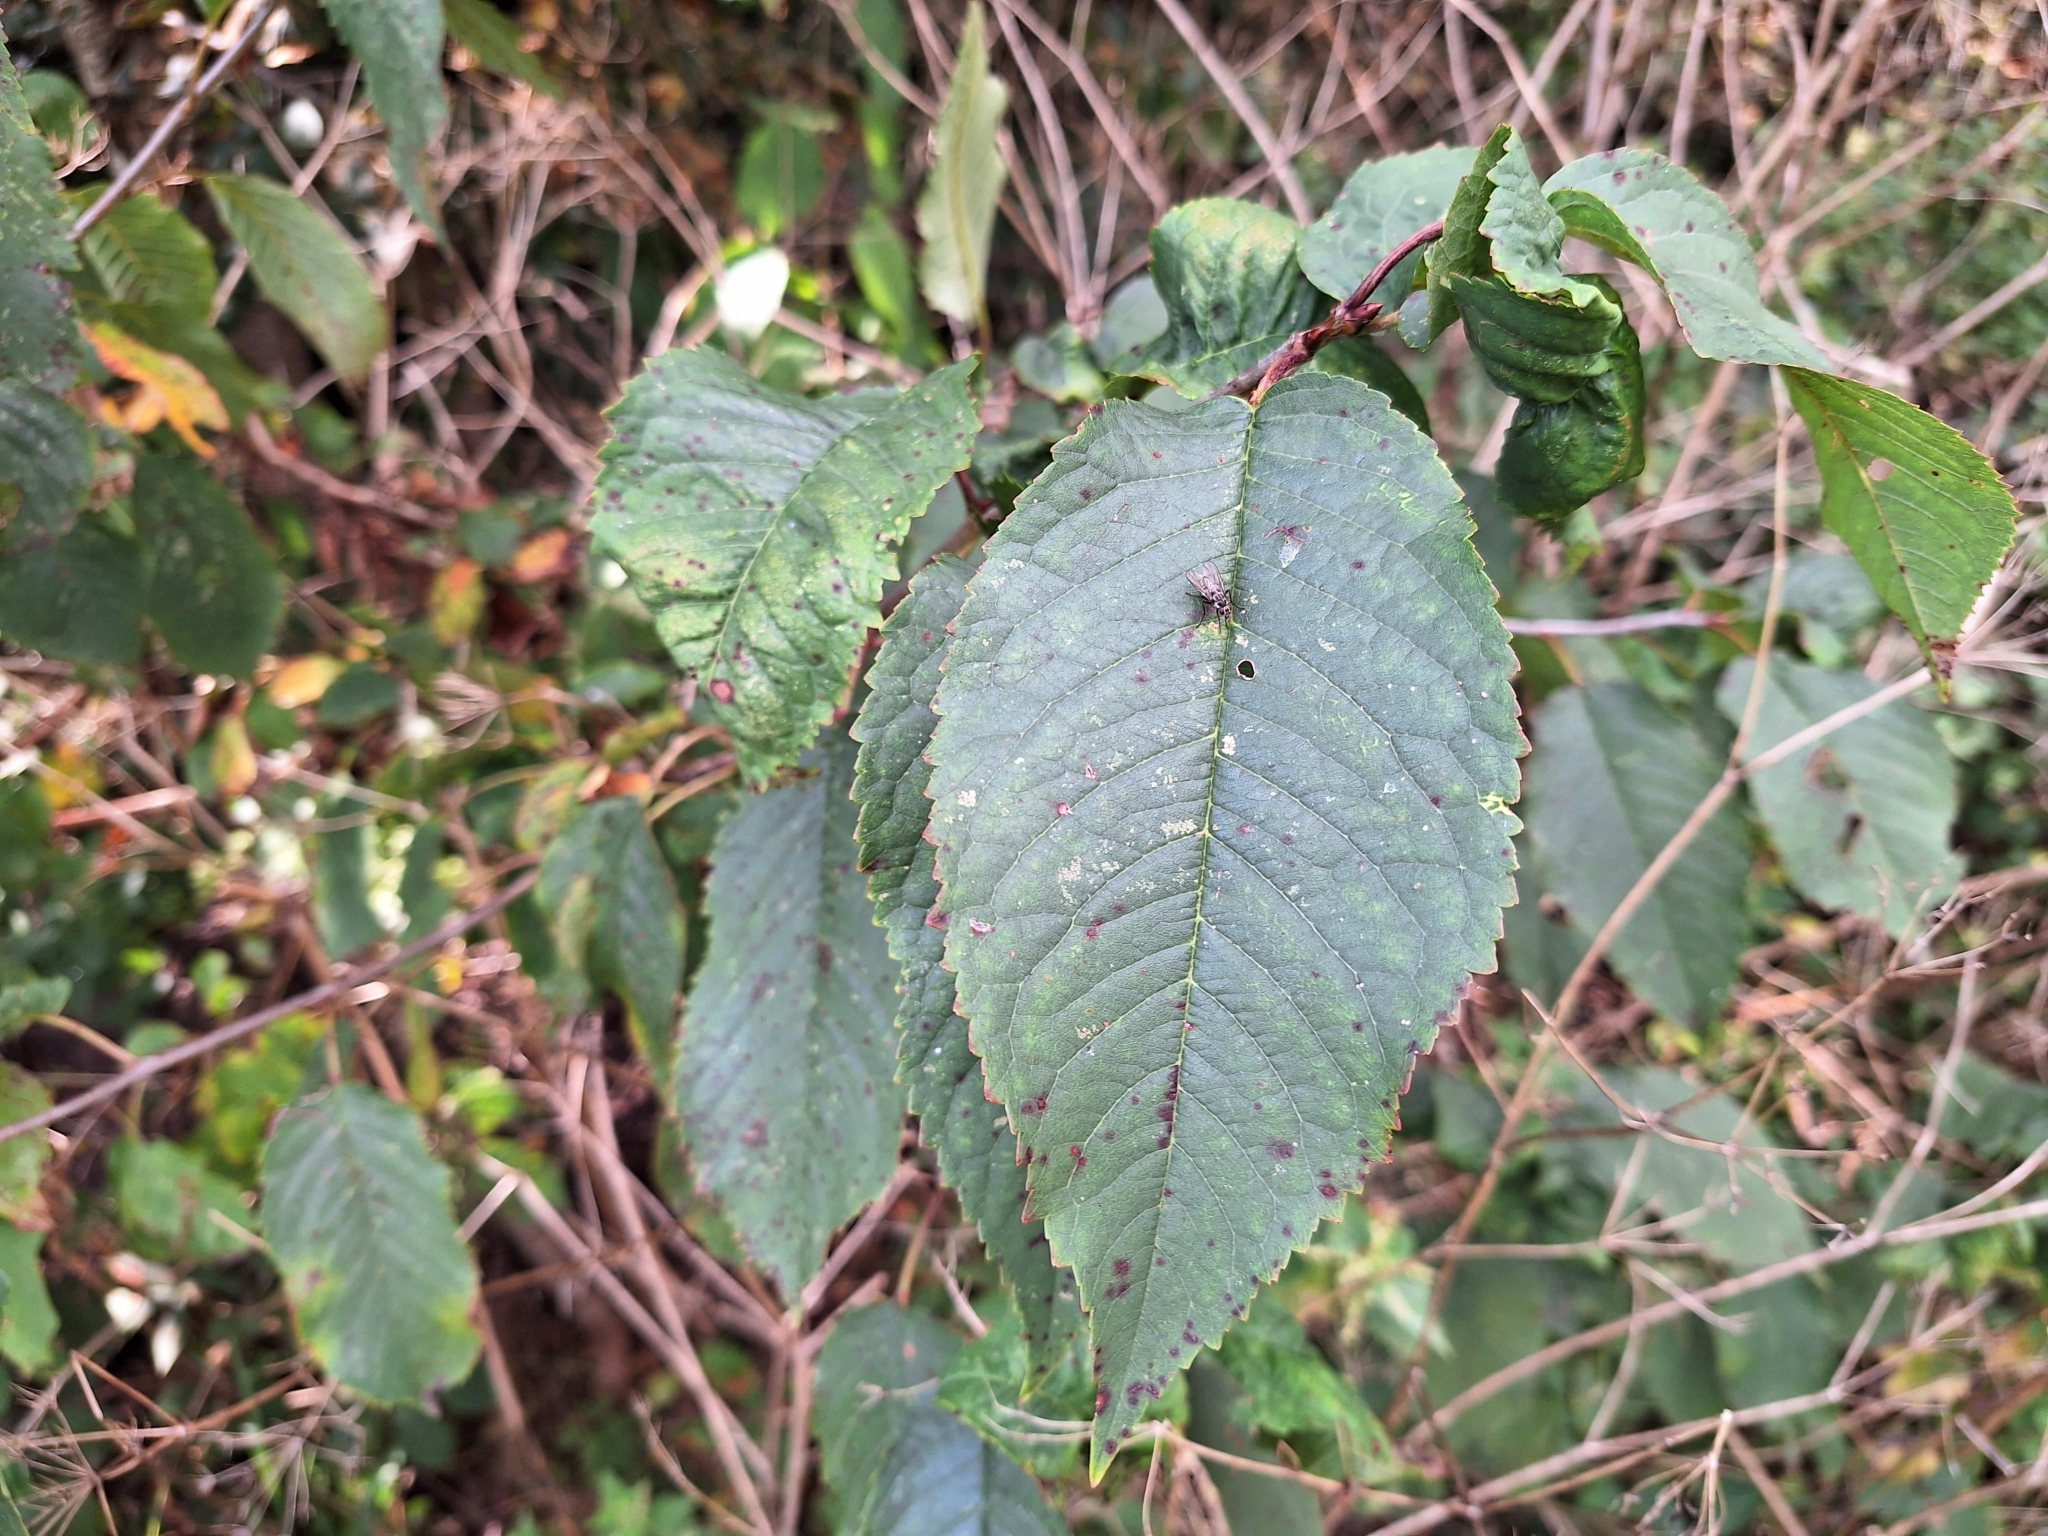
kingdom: Plantae
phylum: Tracheophyta
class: Magnoliopsida
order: Rosales
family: Rosaceae
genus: Prunus
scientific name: Prunus avium
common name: Sweet cherry
